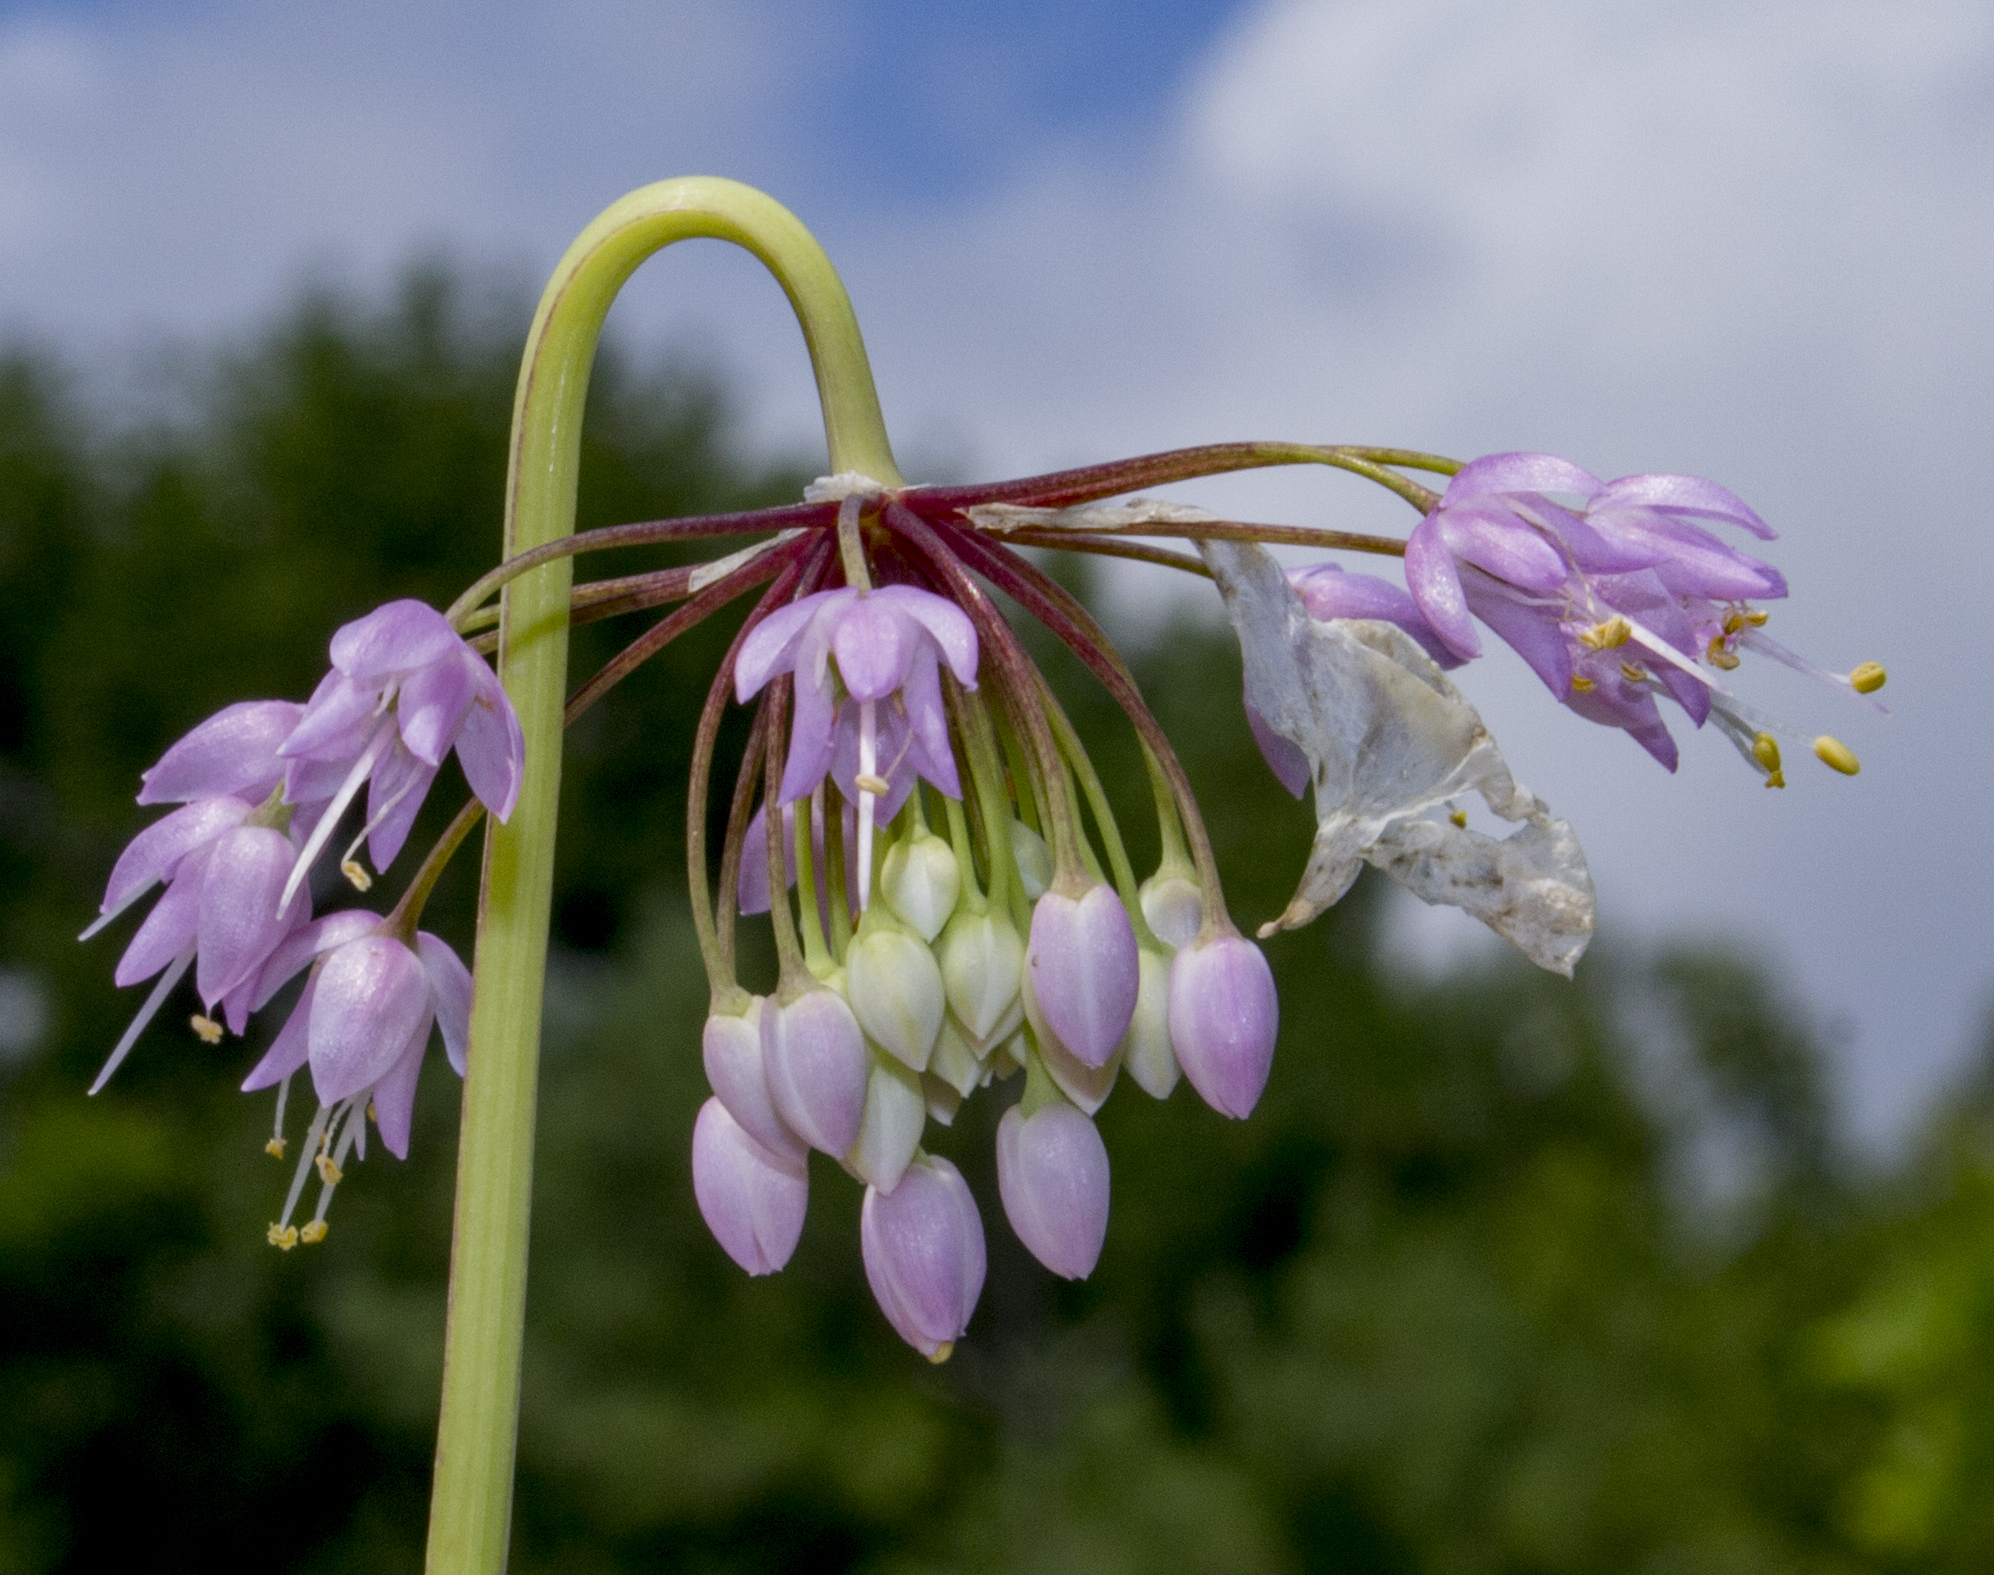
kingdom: Plantae
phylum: Tracheophyta
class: Liliopsida
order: Asparagales
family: Amaryllidaceae
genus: Allium
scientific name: Allium cernuum
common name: Nodding onion
